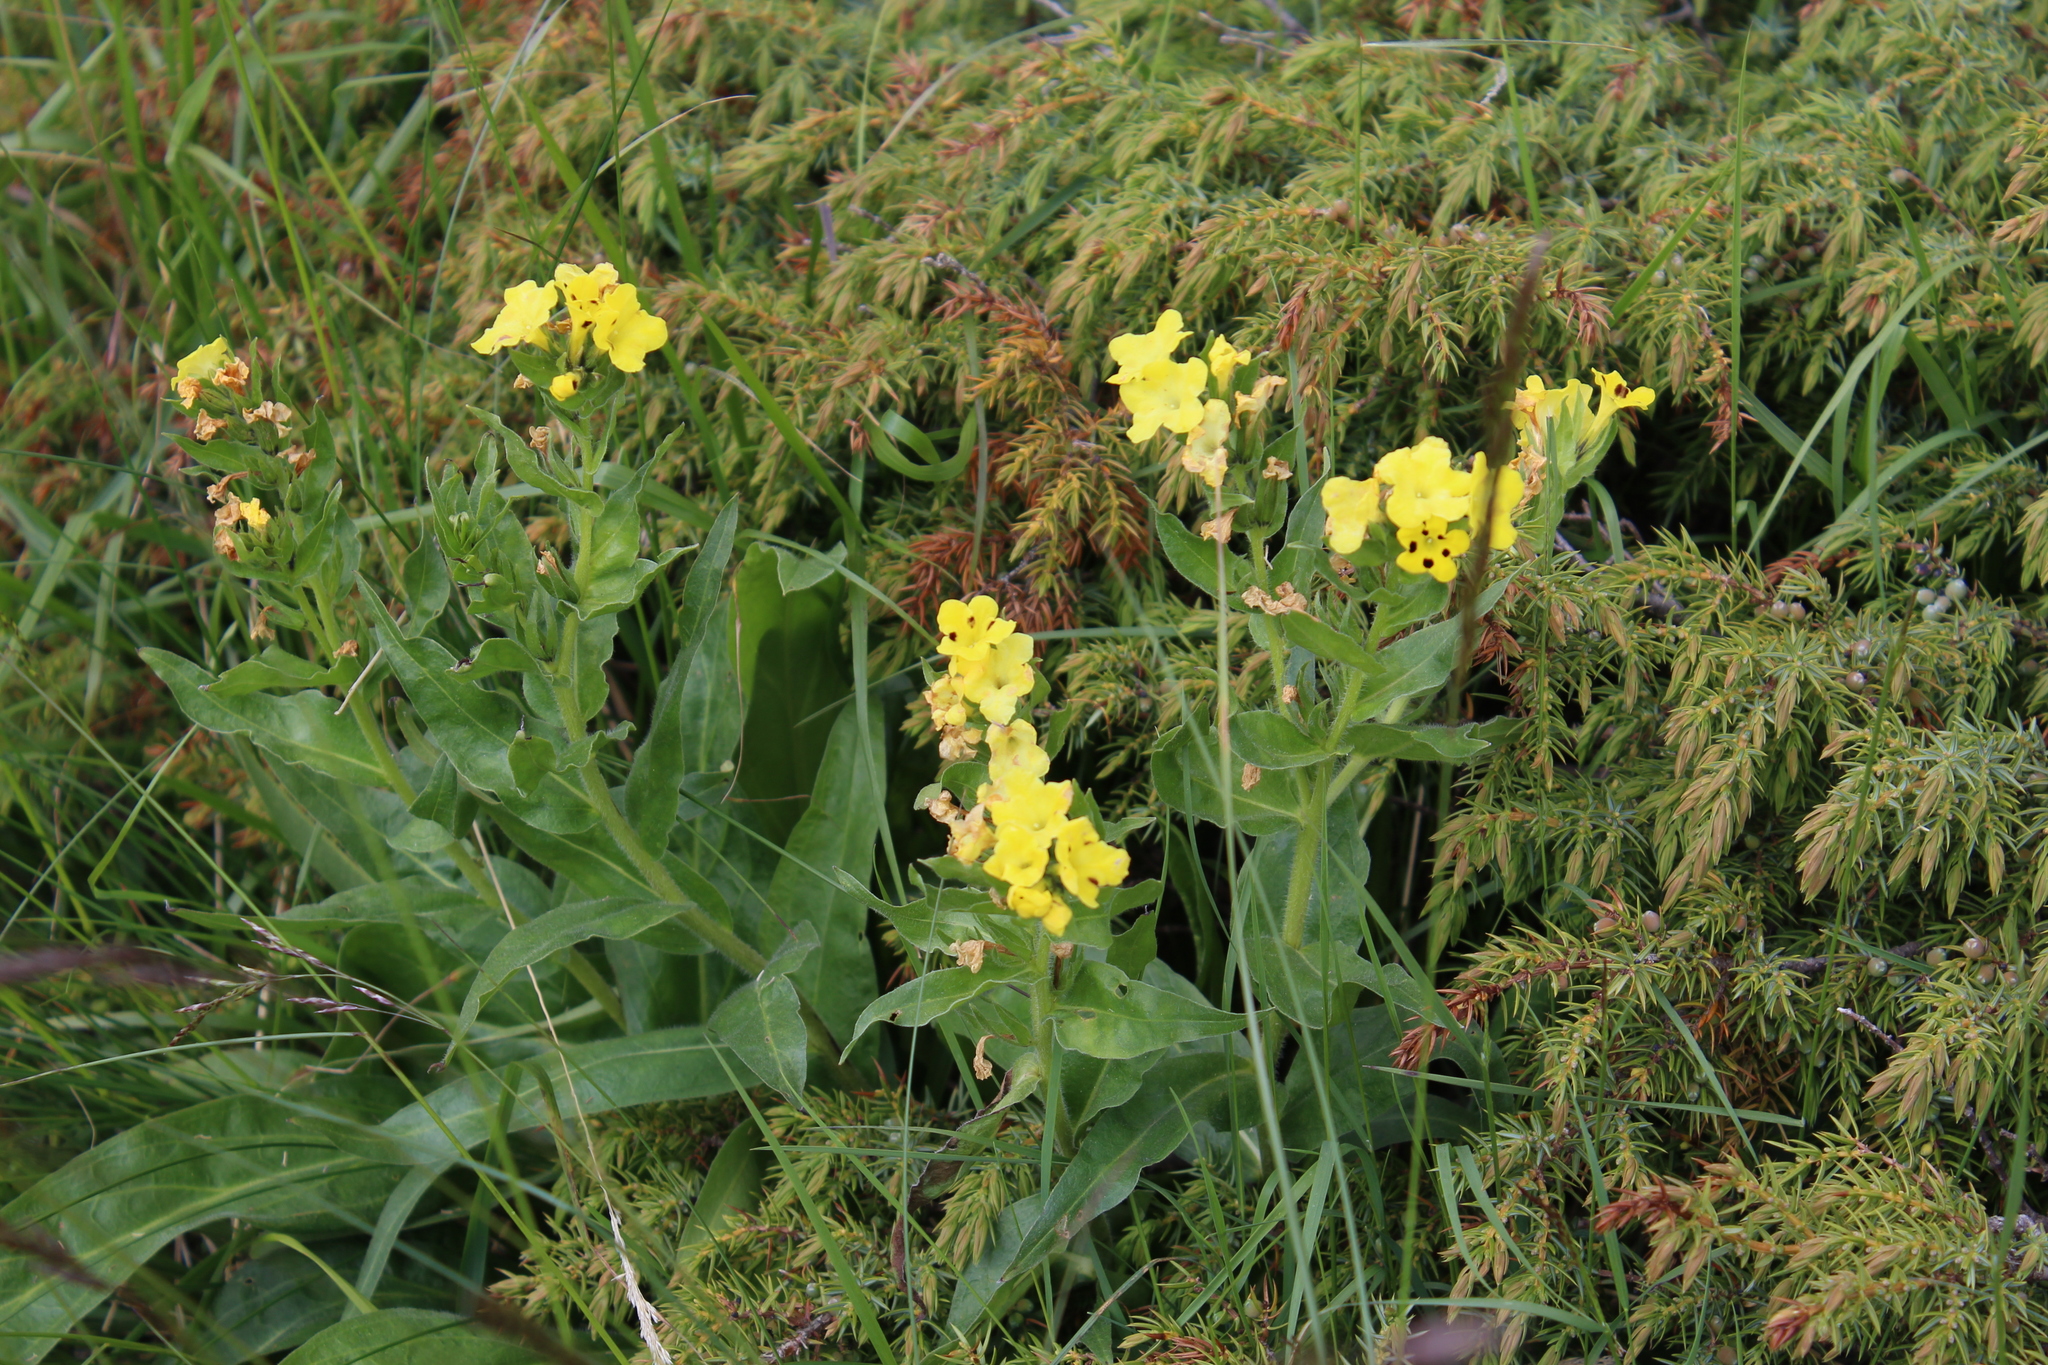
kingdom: Plantae
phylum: Tracheophyta
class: Magnoliopsida
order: Boraginales
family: Boraginaceae
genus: Huynhia
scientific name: Huynhia pulchra
